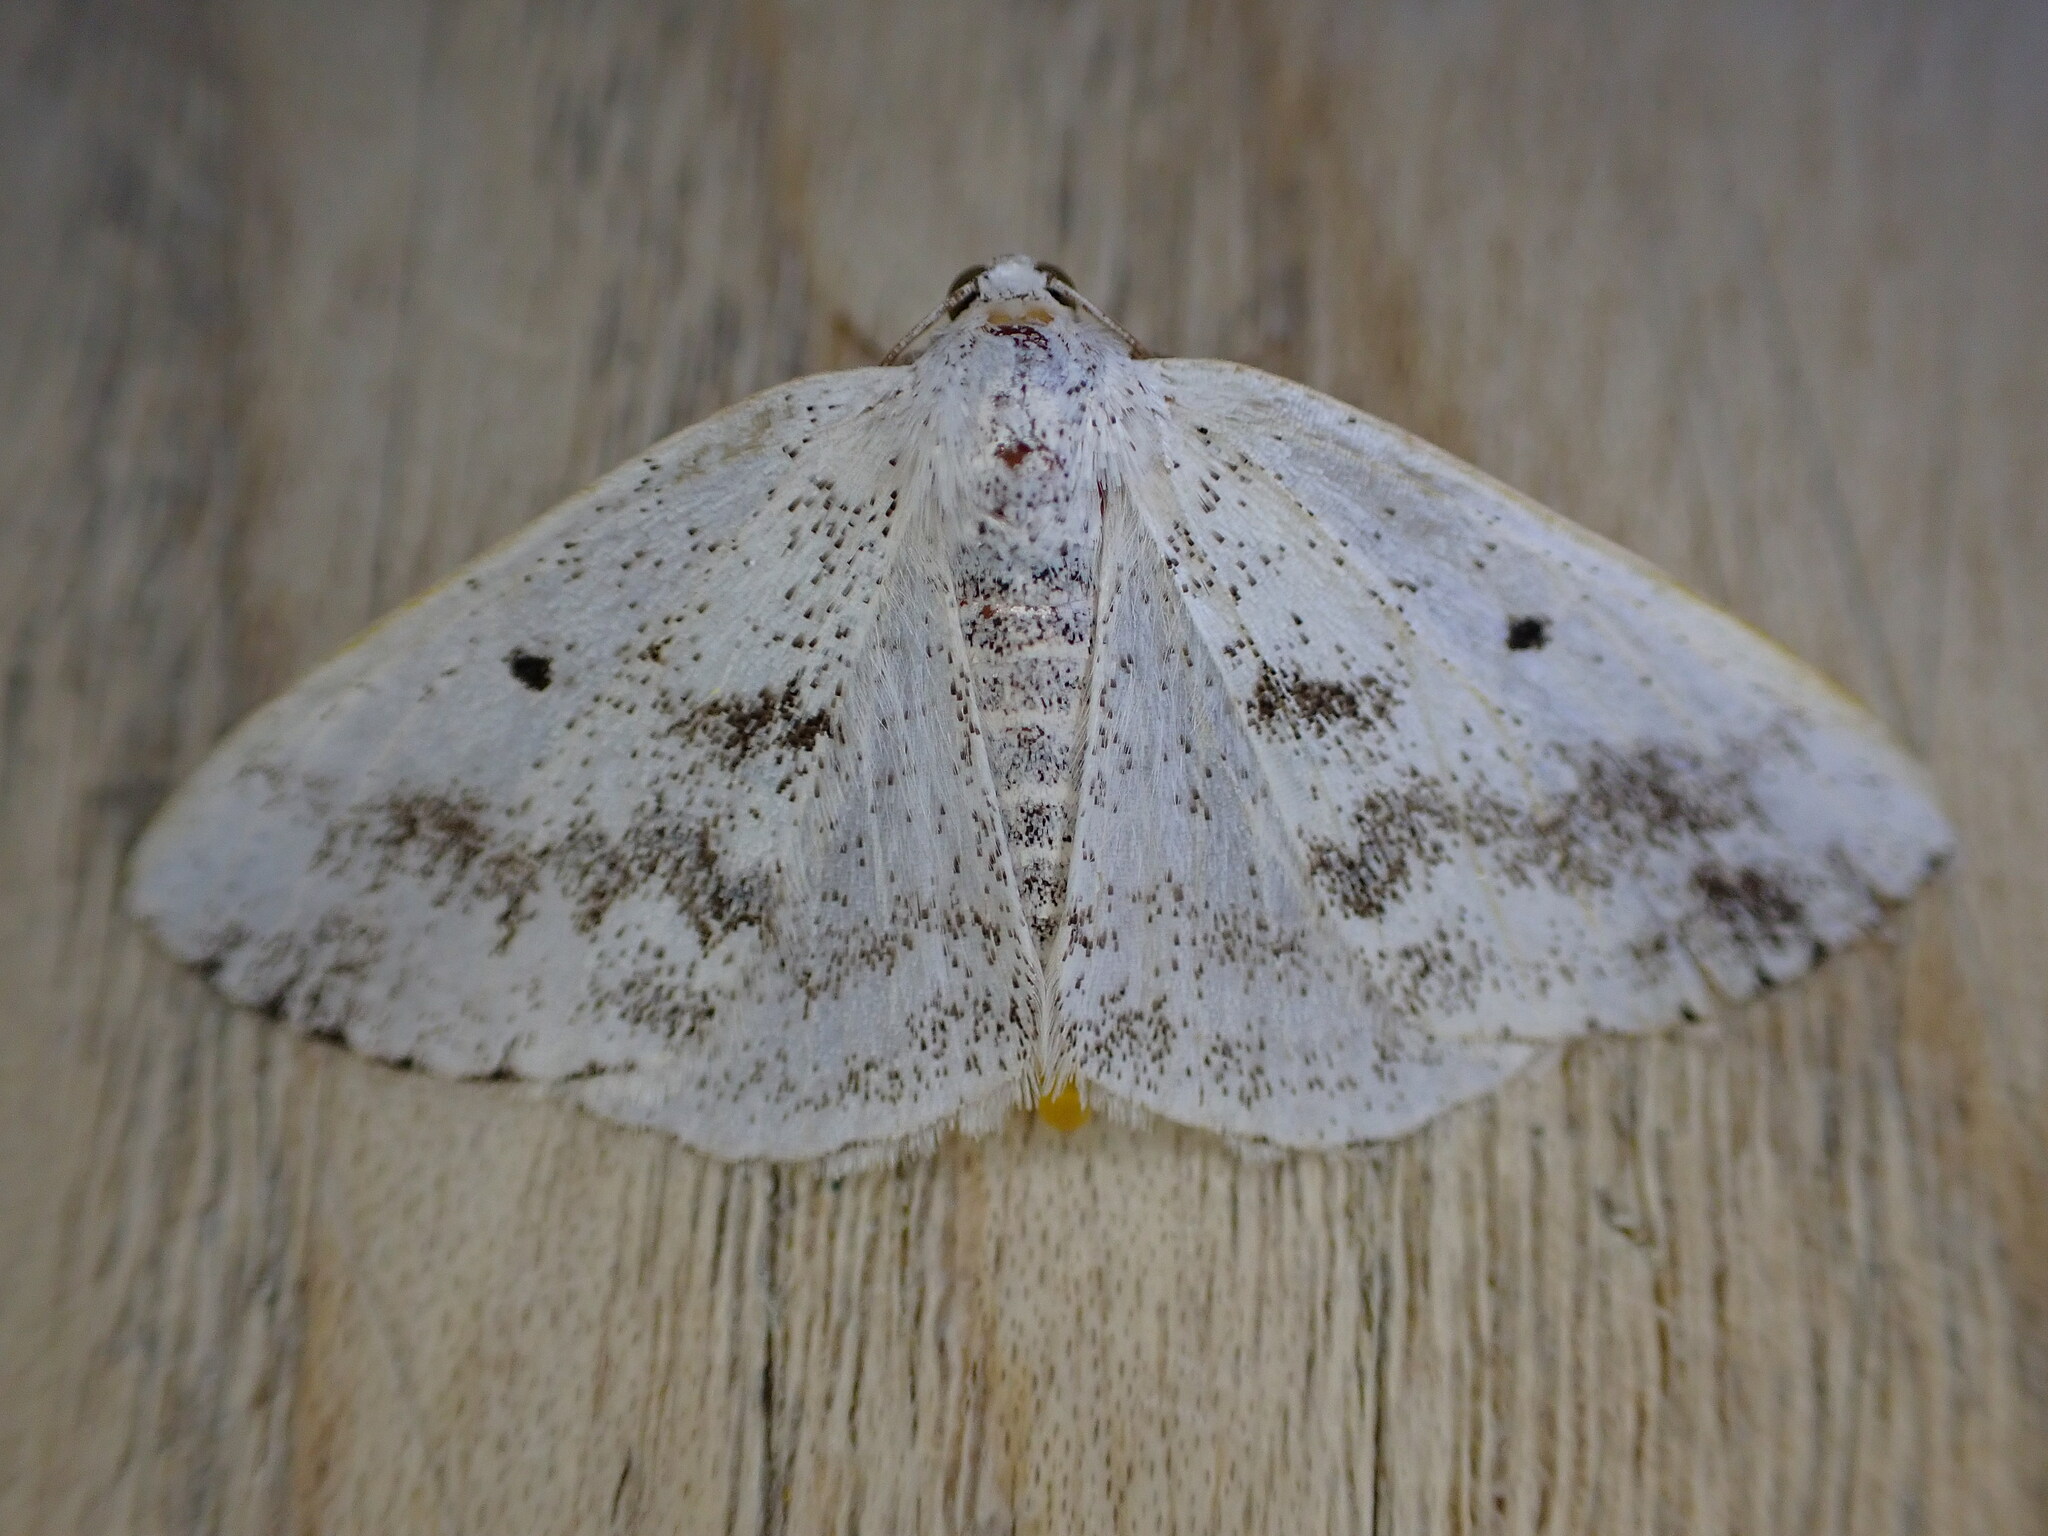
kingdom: Animalia
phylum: Arthropoda
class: Insecta
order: Lepidoptera
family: Geometridae
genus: Lomographa
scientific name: Lomographa temerata
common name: Clouded silver
